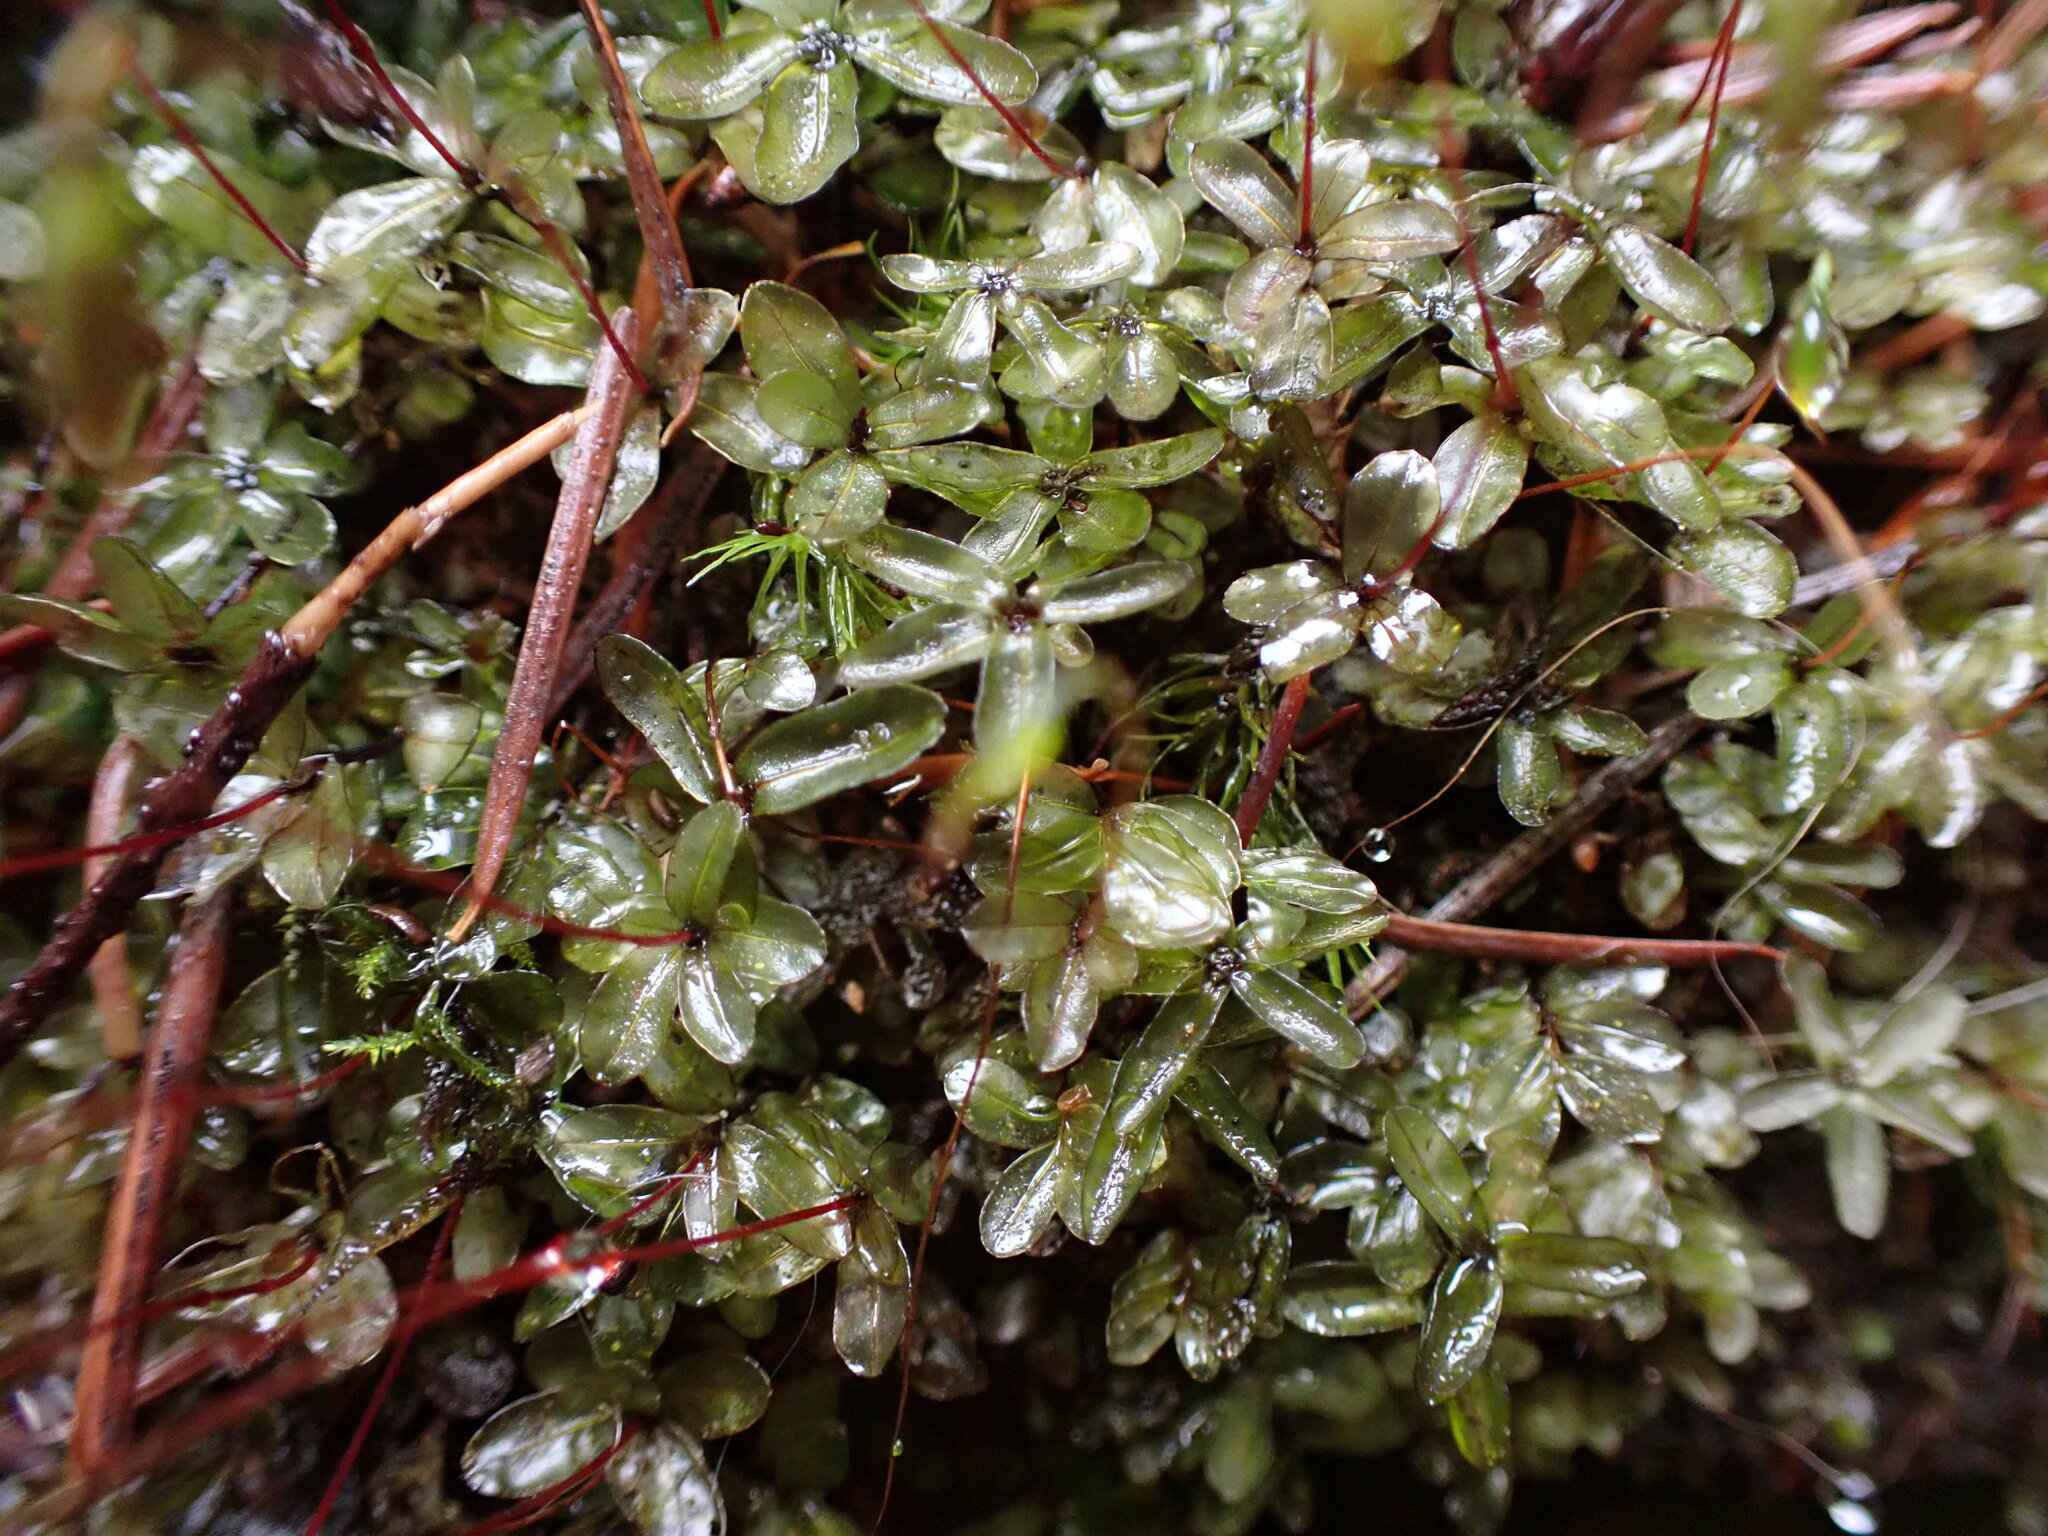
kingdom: Plantae
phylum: Bryophyta
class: Bryopsida
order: Bryales
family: Mniaceae
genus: Rhizomnium
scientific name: Rhizomnium glabrescens
